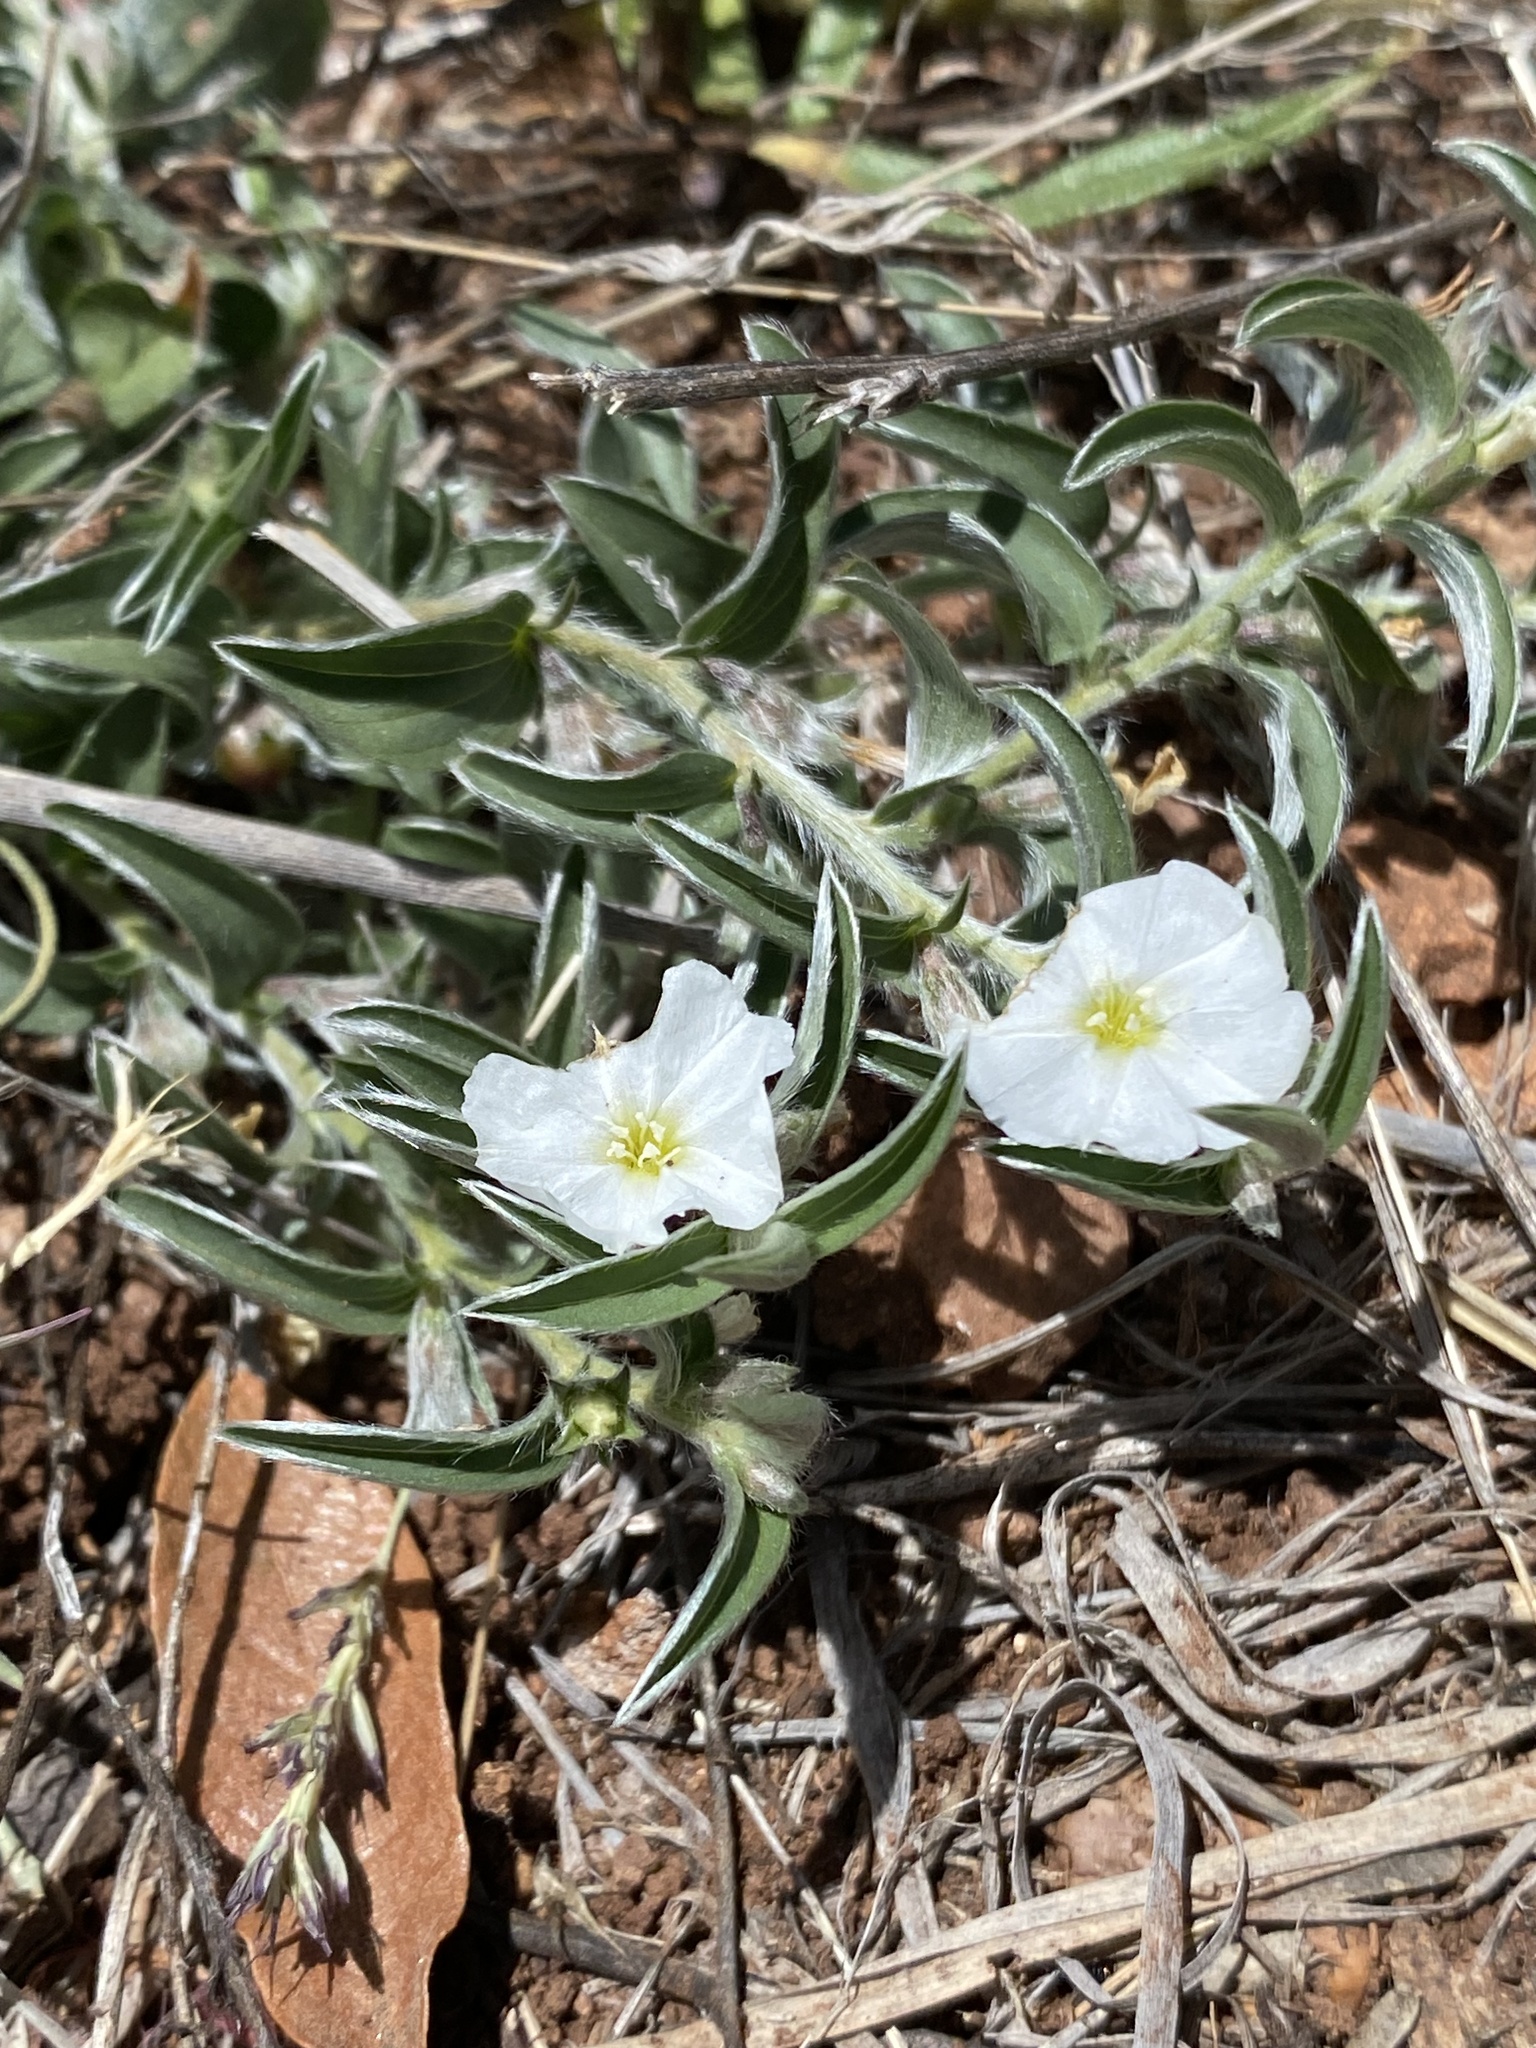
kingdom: Plantae
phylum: Tracheophyta
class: Magnoliopsida
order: Solanales
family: Convolvulaceae
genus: Evolvulus
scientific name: Evolvulus sericeus
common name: Blue dots
